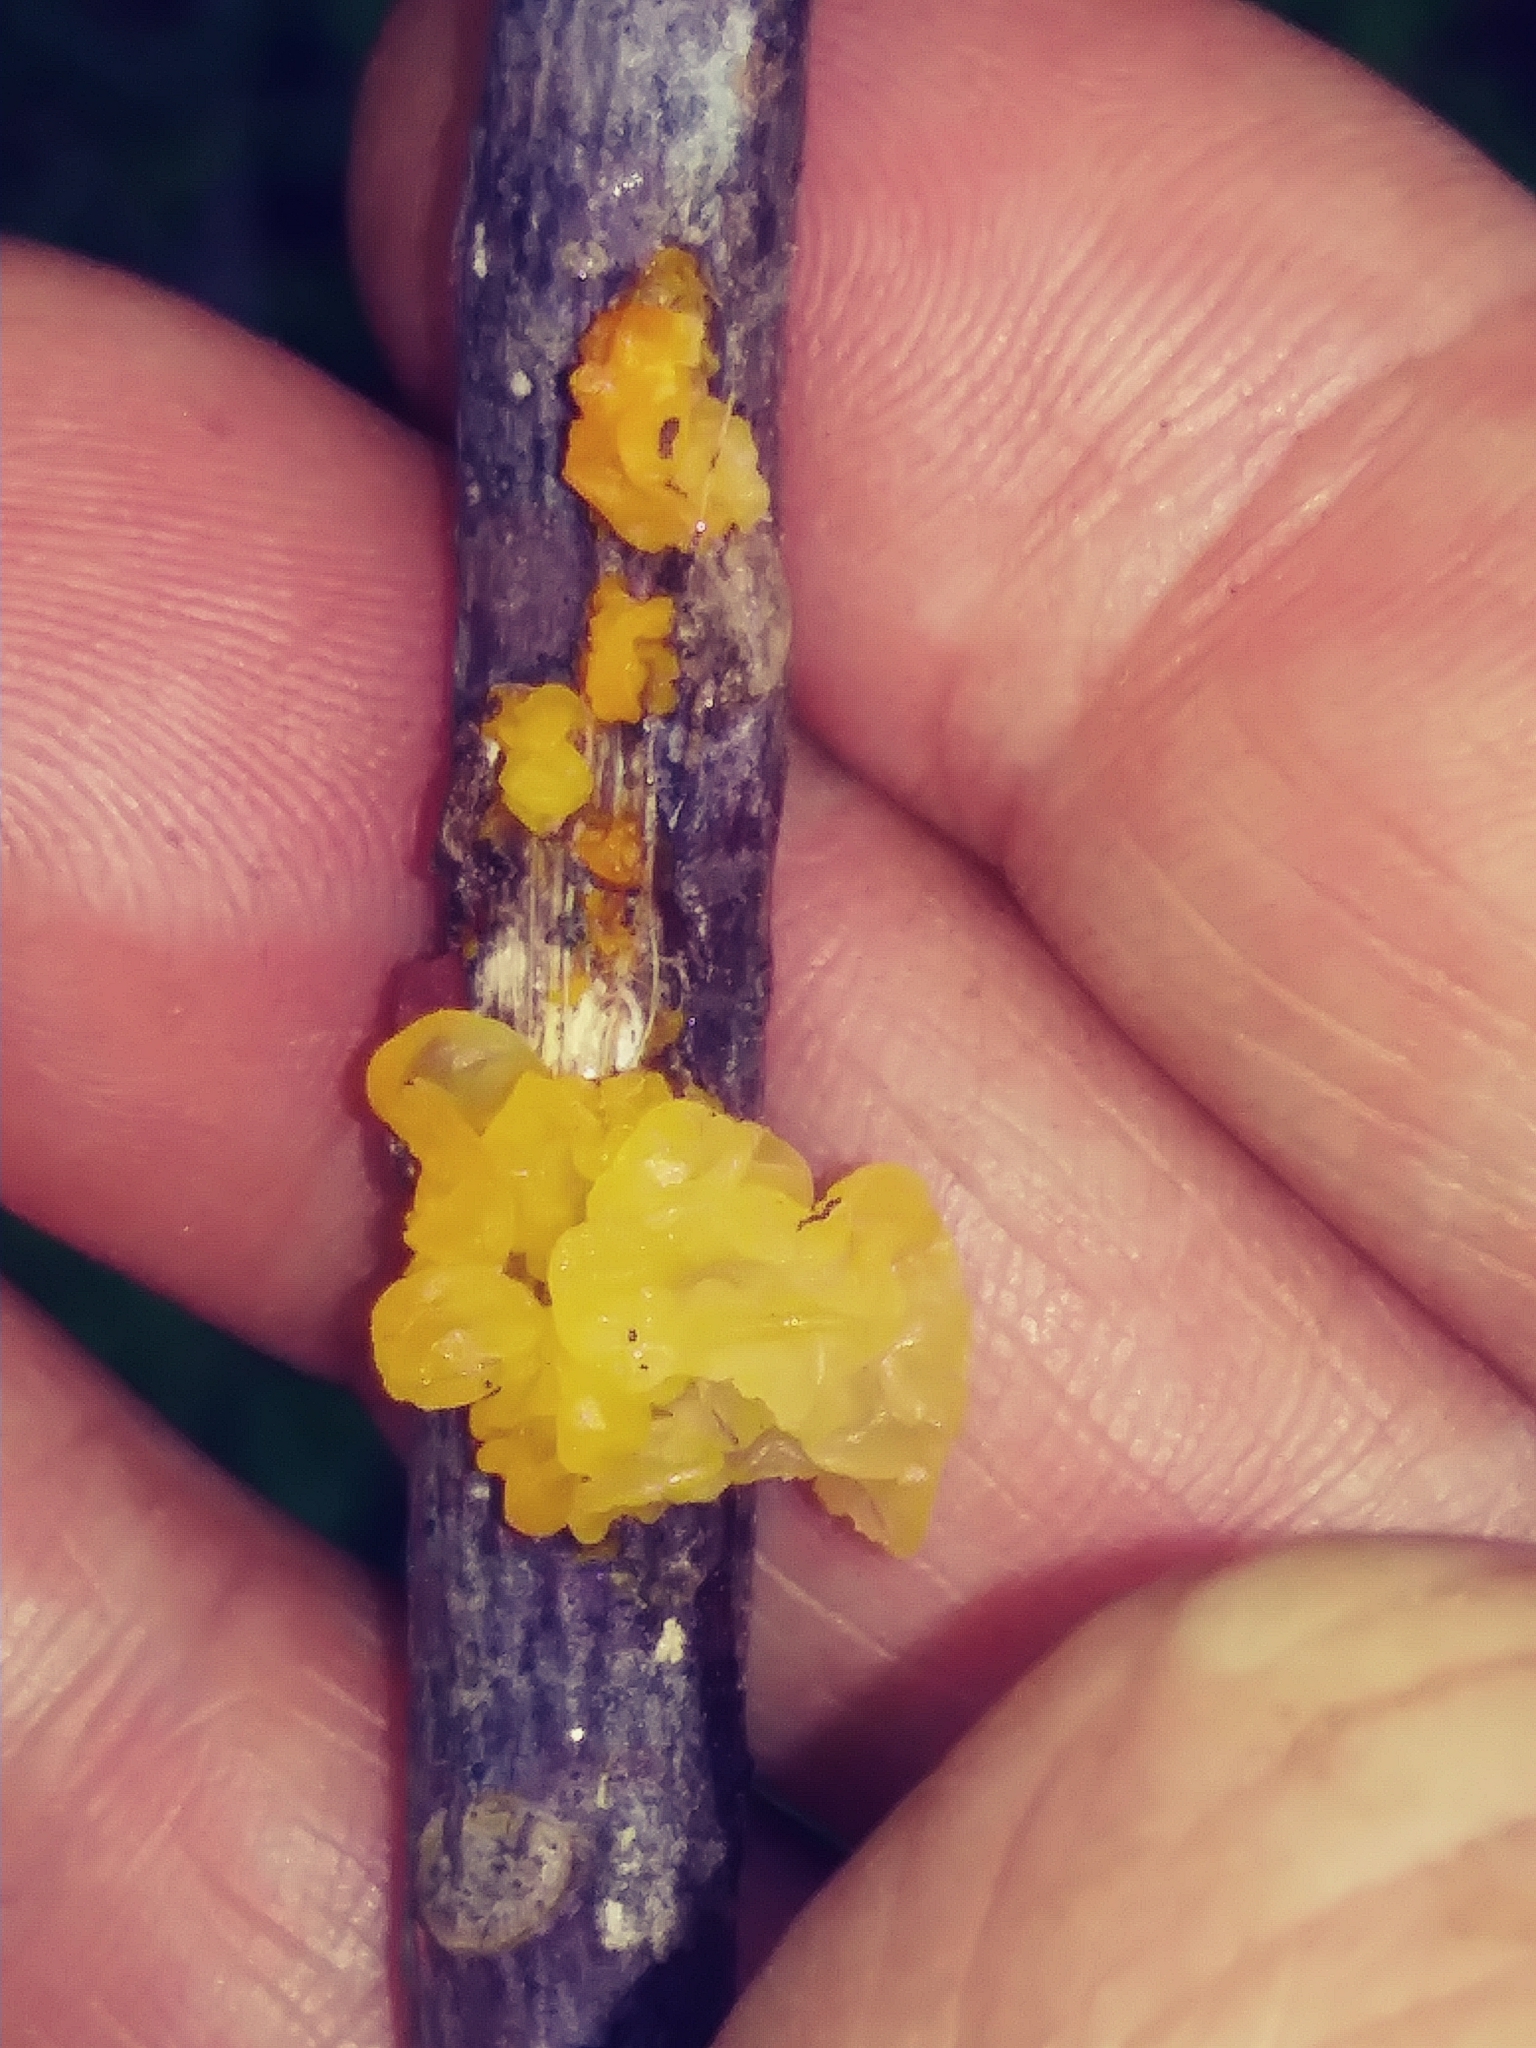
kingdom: Fungi
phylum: Basidiomycota
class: Tremellomycetes
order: Tremellales
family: Tremellaceae
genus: Tremella
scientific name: Tremella mesenterica
